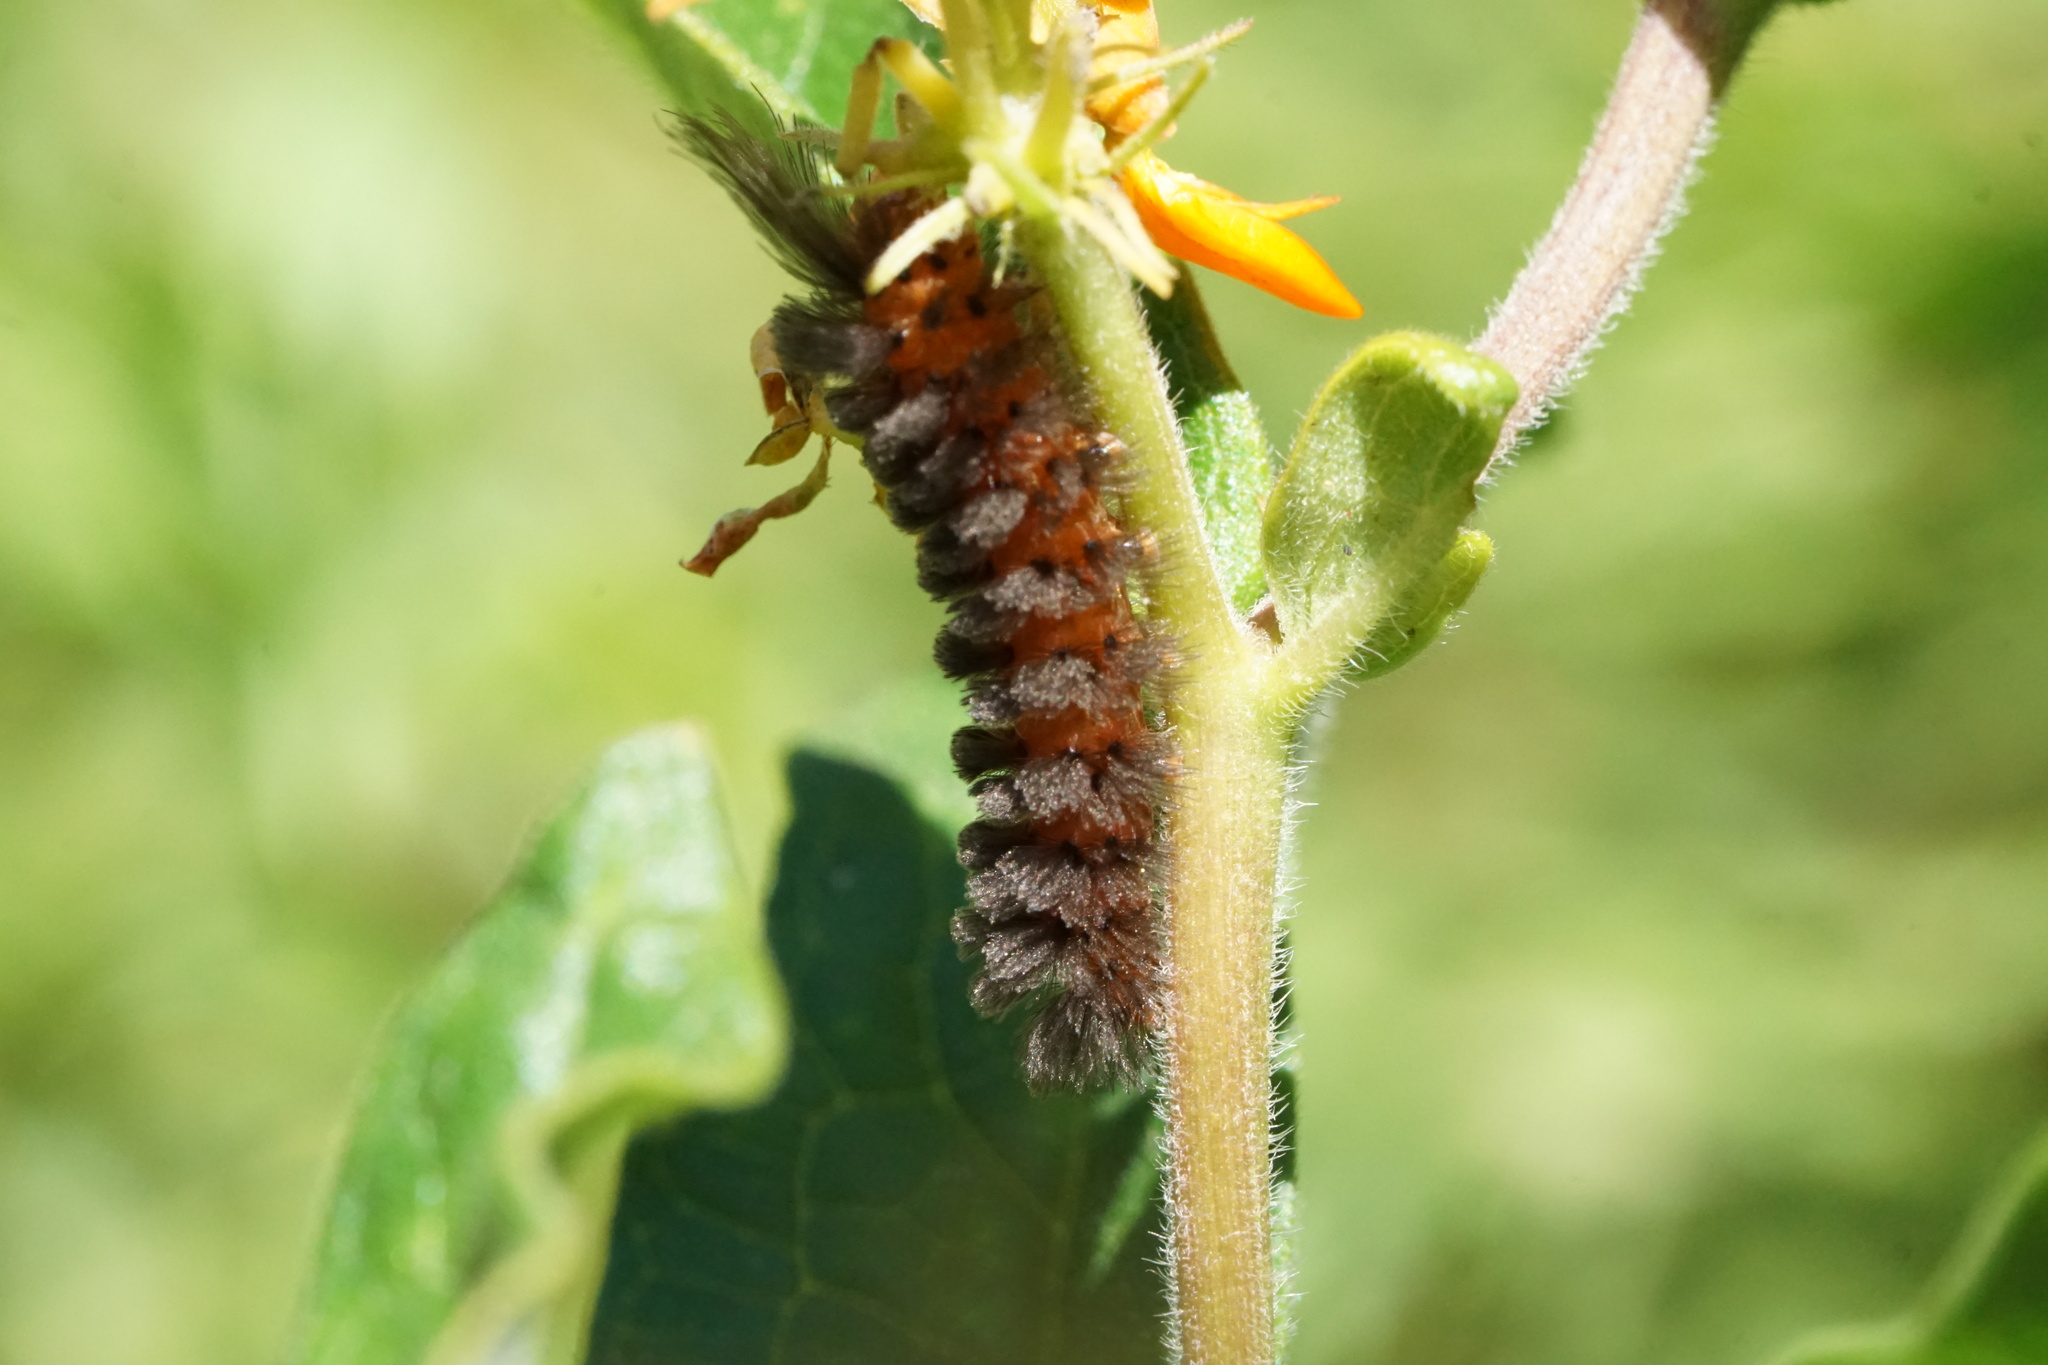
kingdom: Animalia
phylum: Arthropoda
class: Insecta
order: Lepidoptera
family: Erebidae
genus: Cycnia
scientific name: Cycnia collaris
